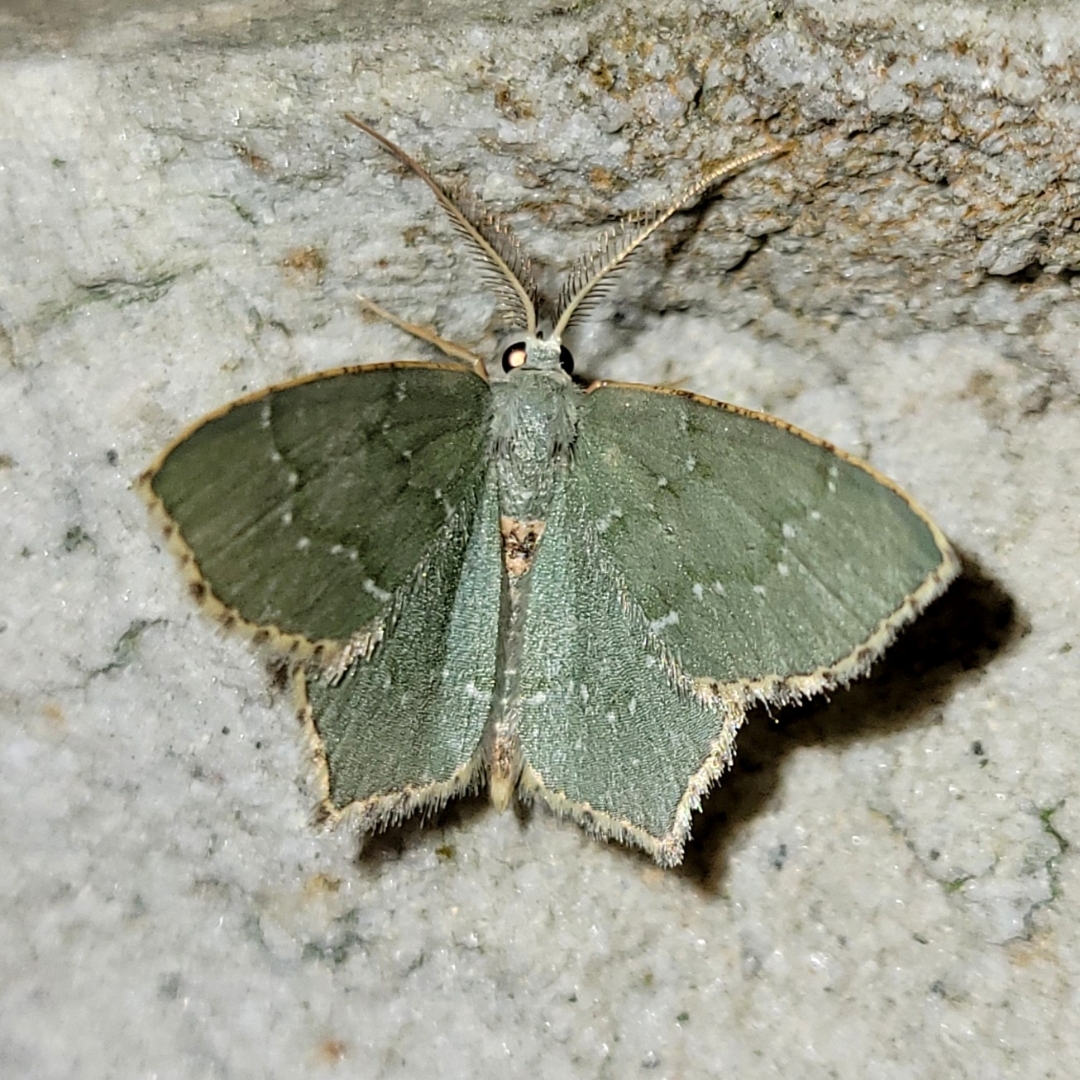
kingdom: Animalia
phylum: Arthropoda
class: Insecta
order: Lepidoptera
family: Geometridae
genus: Chloropteryx
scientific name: Chloropteryx tepperaria
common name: Angle winged emerald moth
